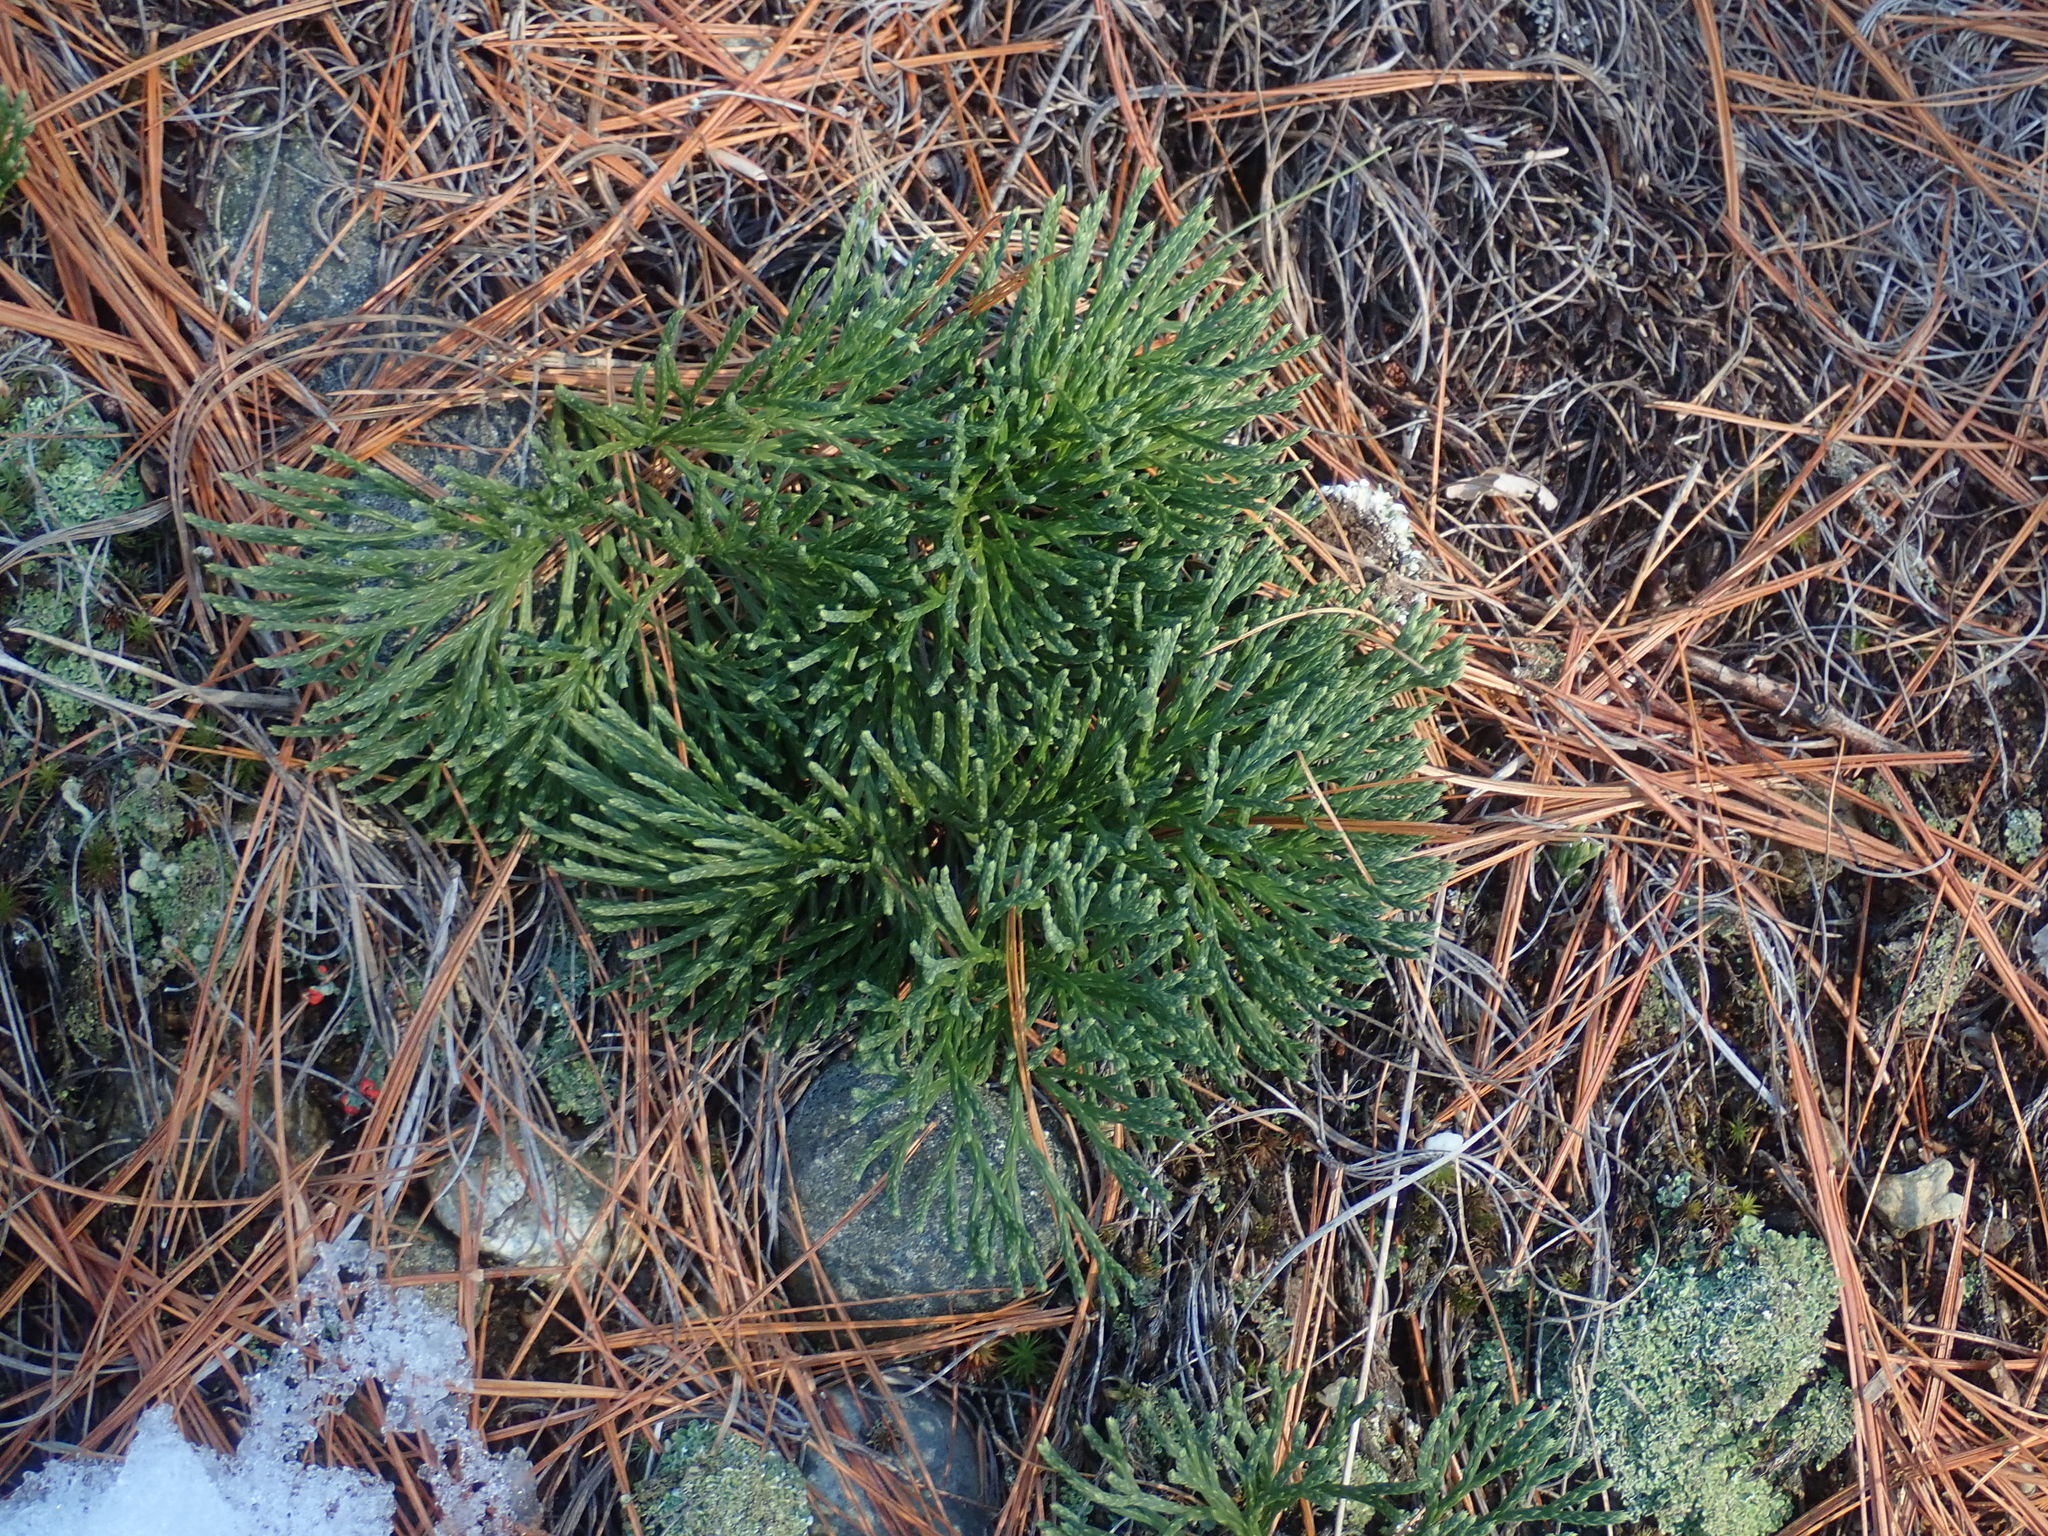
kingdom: Plantae
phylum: Tracheophyta
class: Lycopodiopsida
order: Lycopodiales
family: Lycopodiaceae
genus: Diphasiastrum
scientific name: Diphasiastrum tristachyum
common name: Blue ground-cedar
